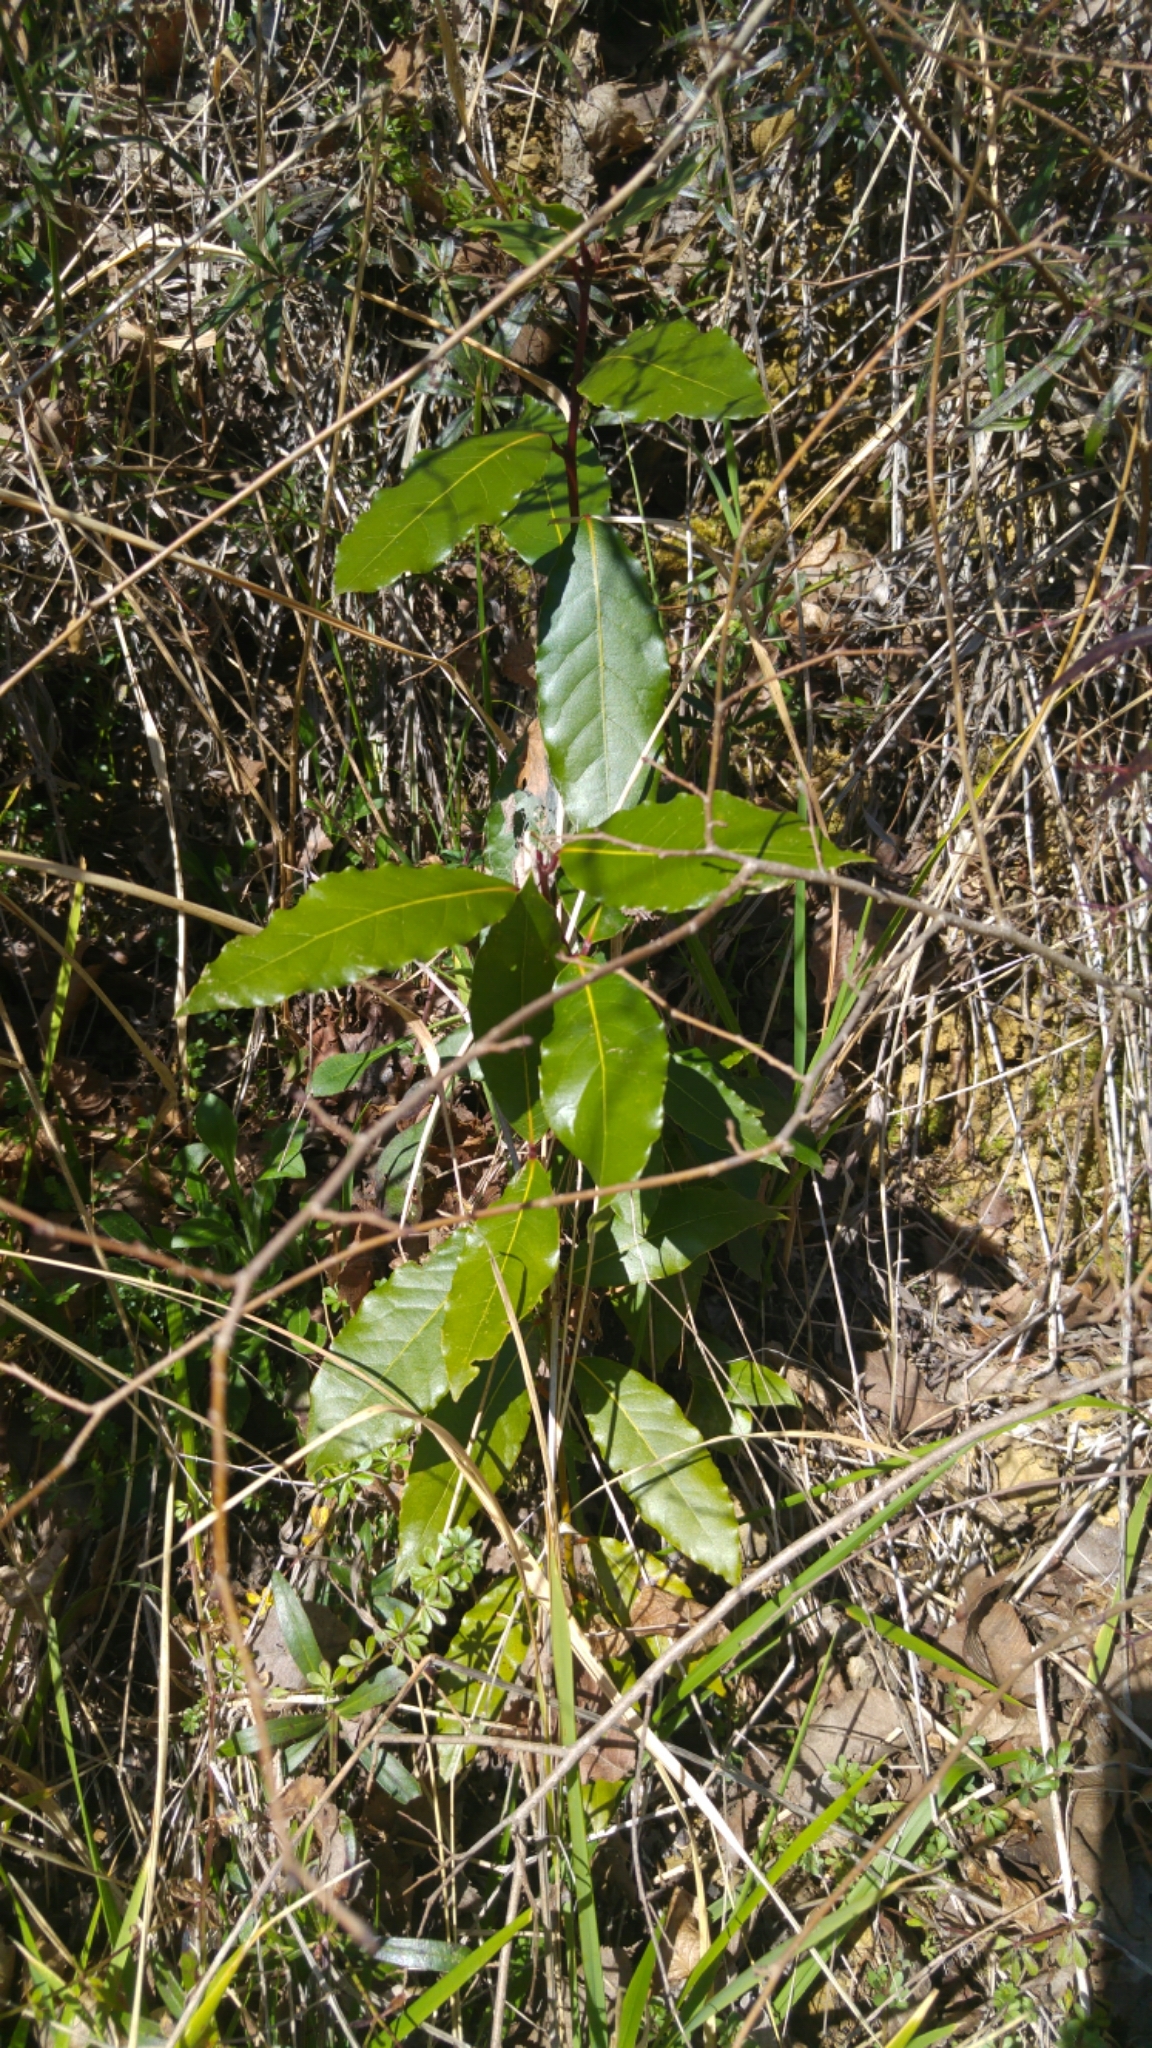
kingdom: Plantae
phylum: Tracheophyta
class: Magnoliopsida
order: Laurales
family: Lauraceae
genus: Laurus
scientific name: Laurus nobilis
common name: Bay
